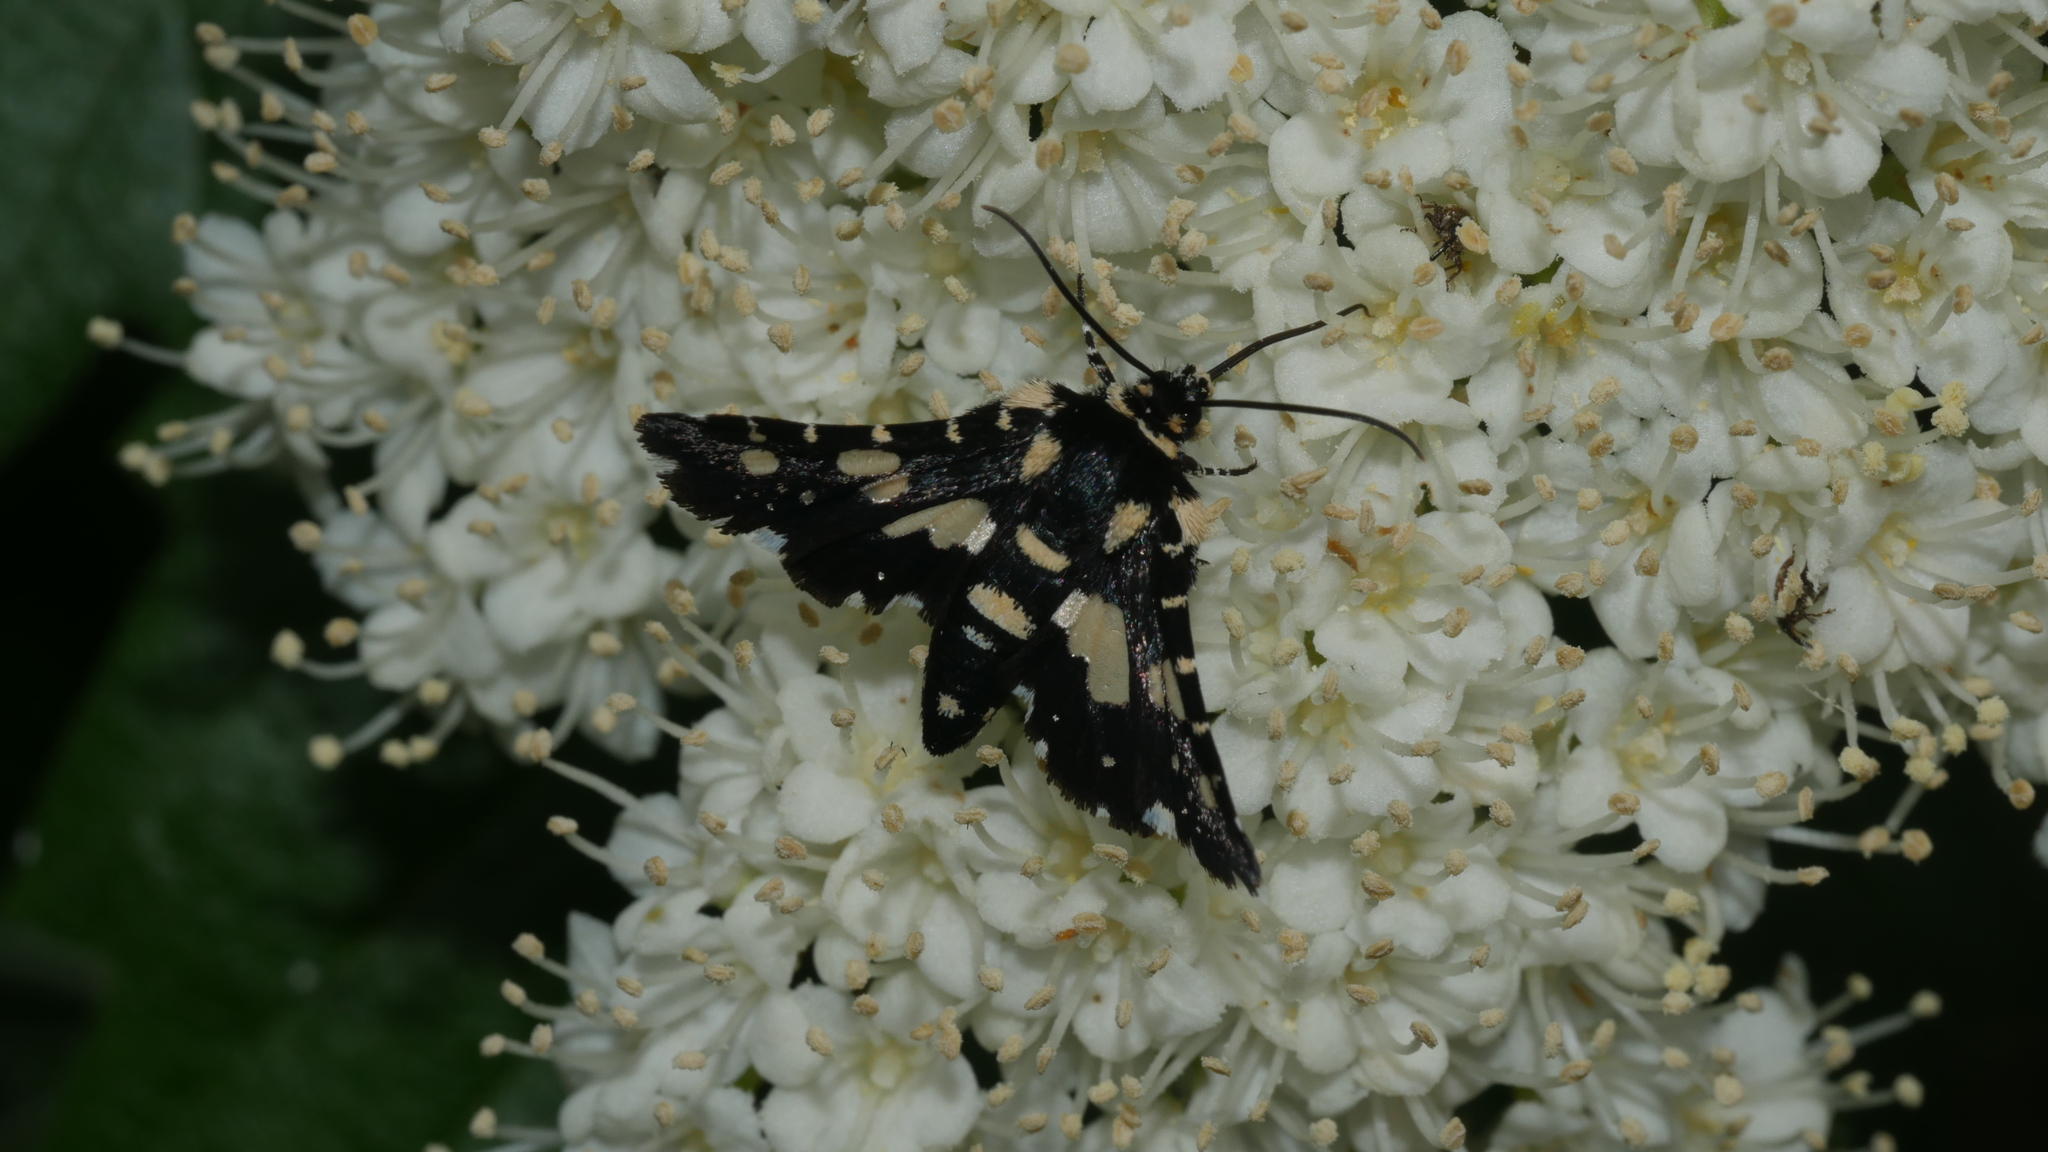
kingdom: Animalia
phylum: Arthropoda
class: Insecta
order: Lepidoptera
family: Thyrididae
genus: Pseudothyris
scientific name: Pseudothyris sepulchralis
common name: Mournful thyris moth
